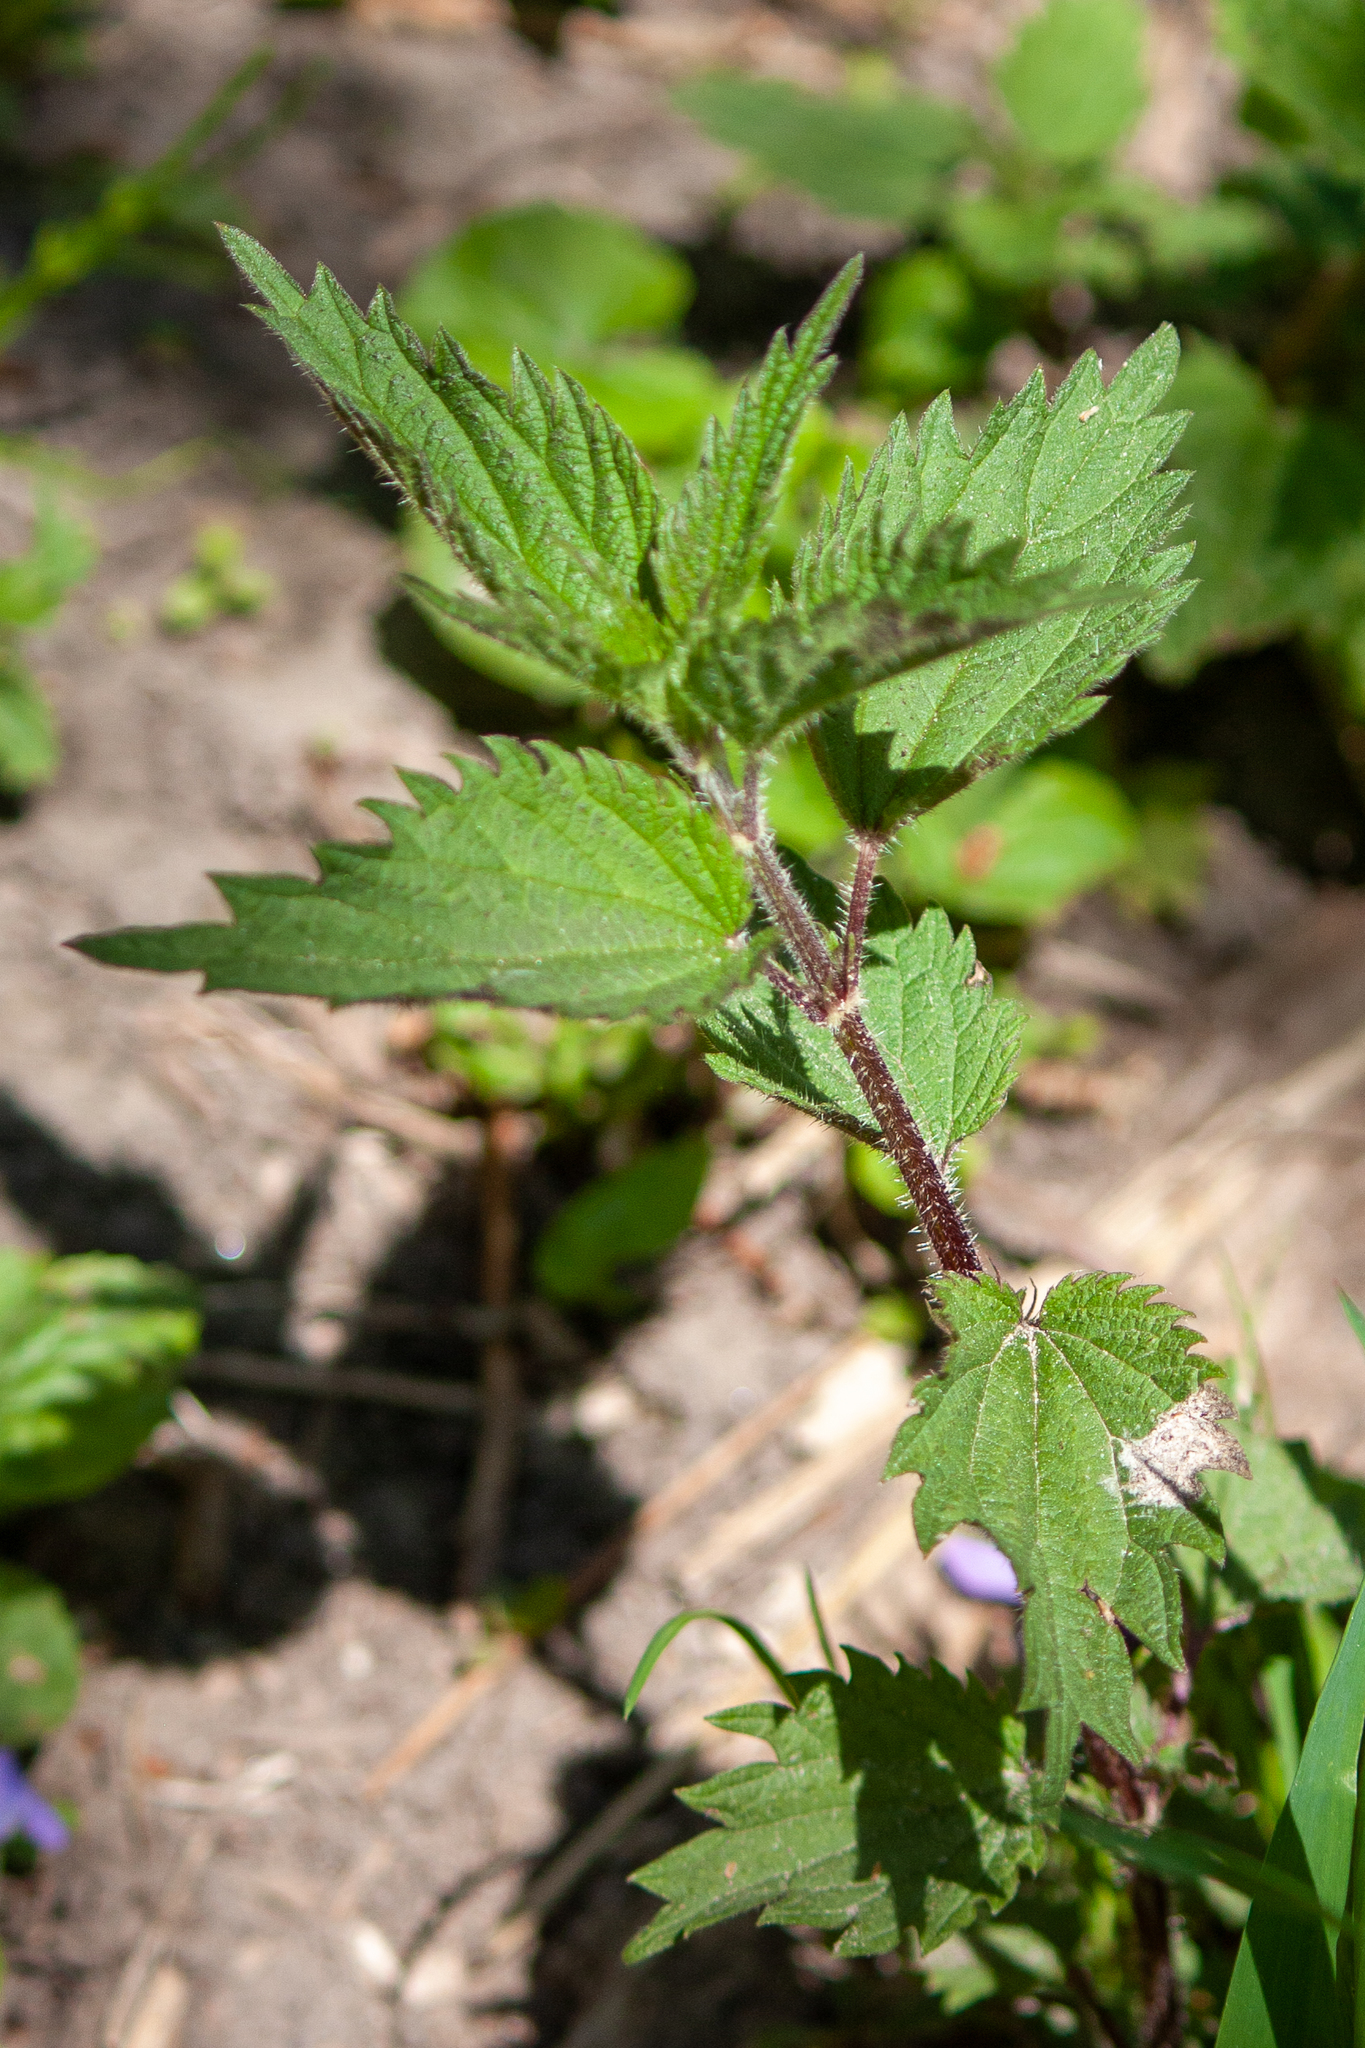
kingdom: Plantae
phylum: Tracheophyta
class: Magnoliopsida
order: Rosales
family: Urticaceae
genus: Urtica
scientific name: Urtica dioica
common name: Common nettle
